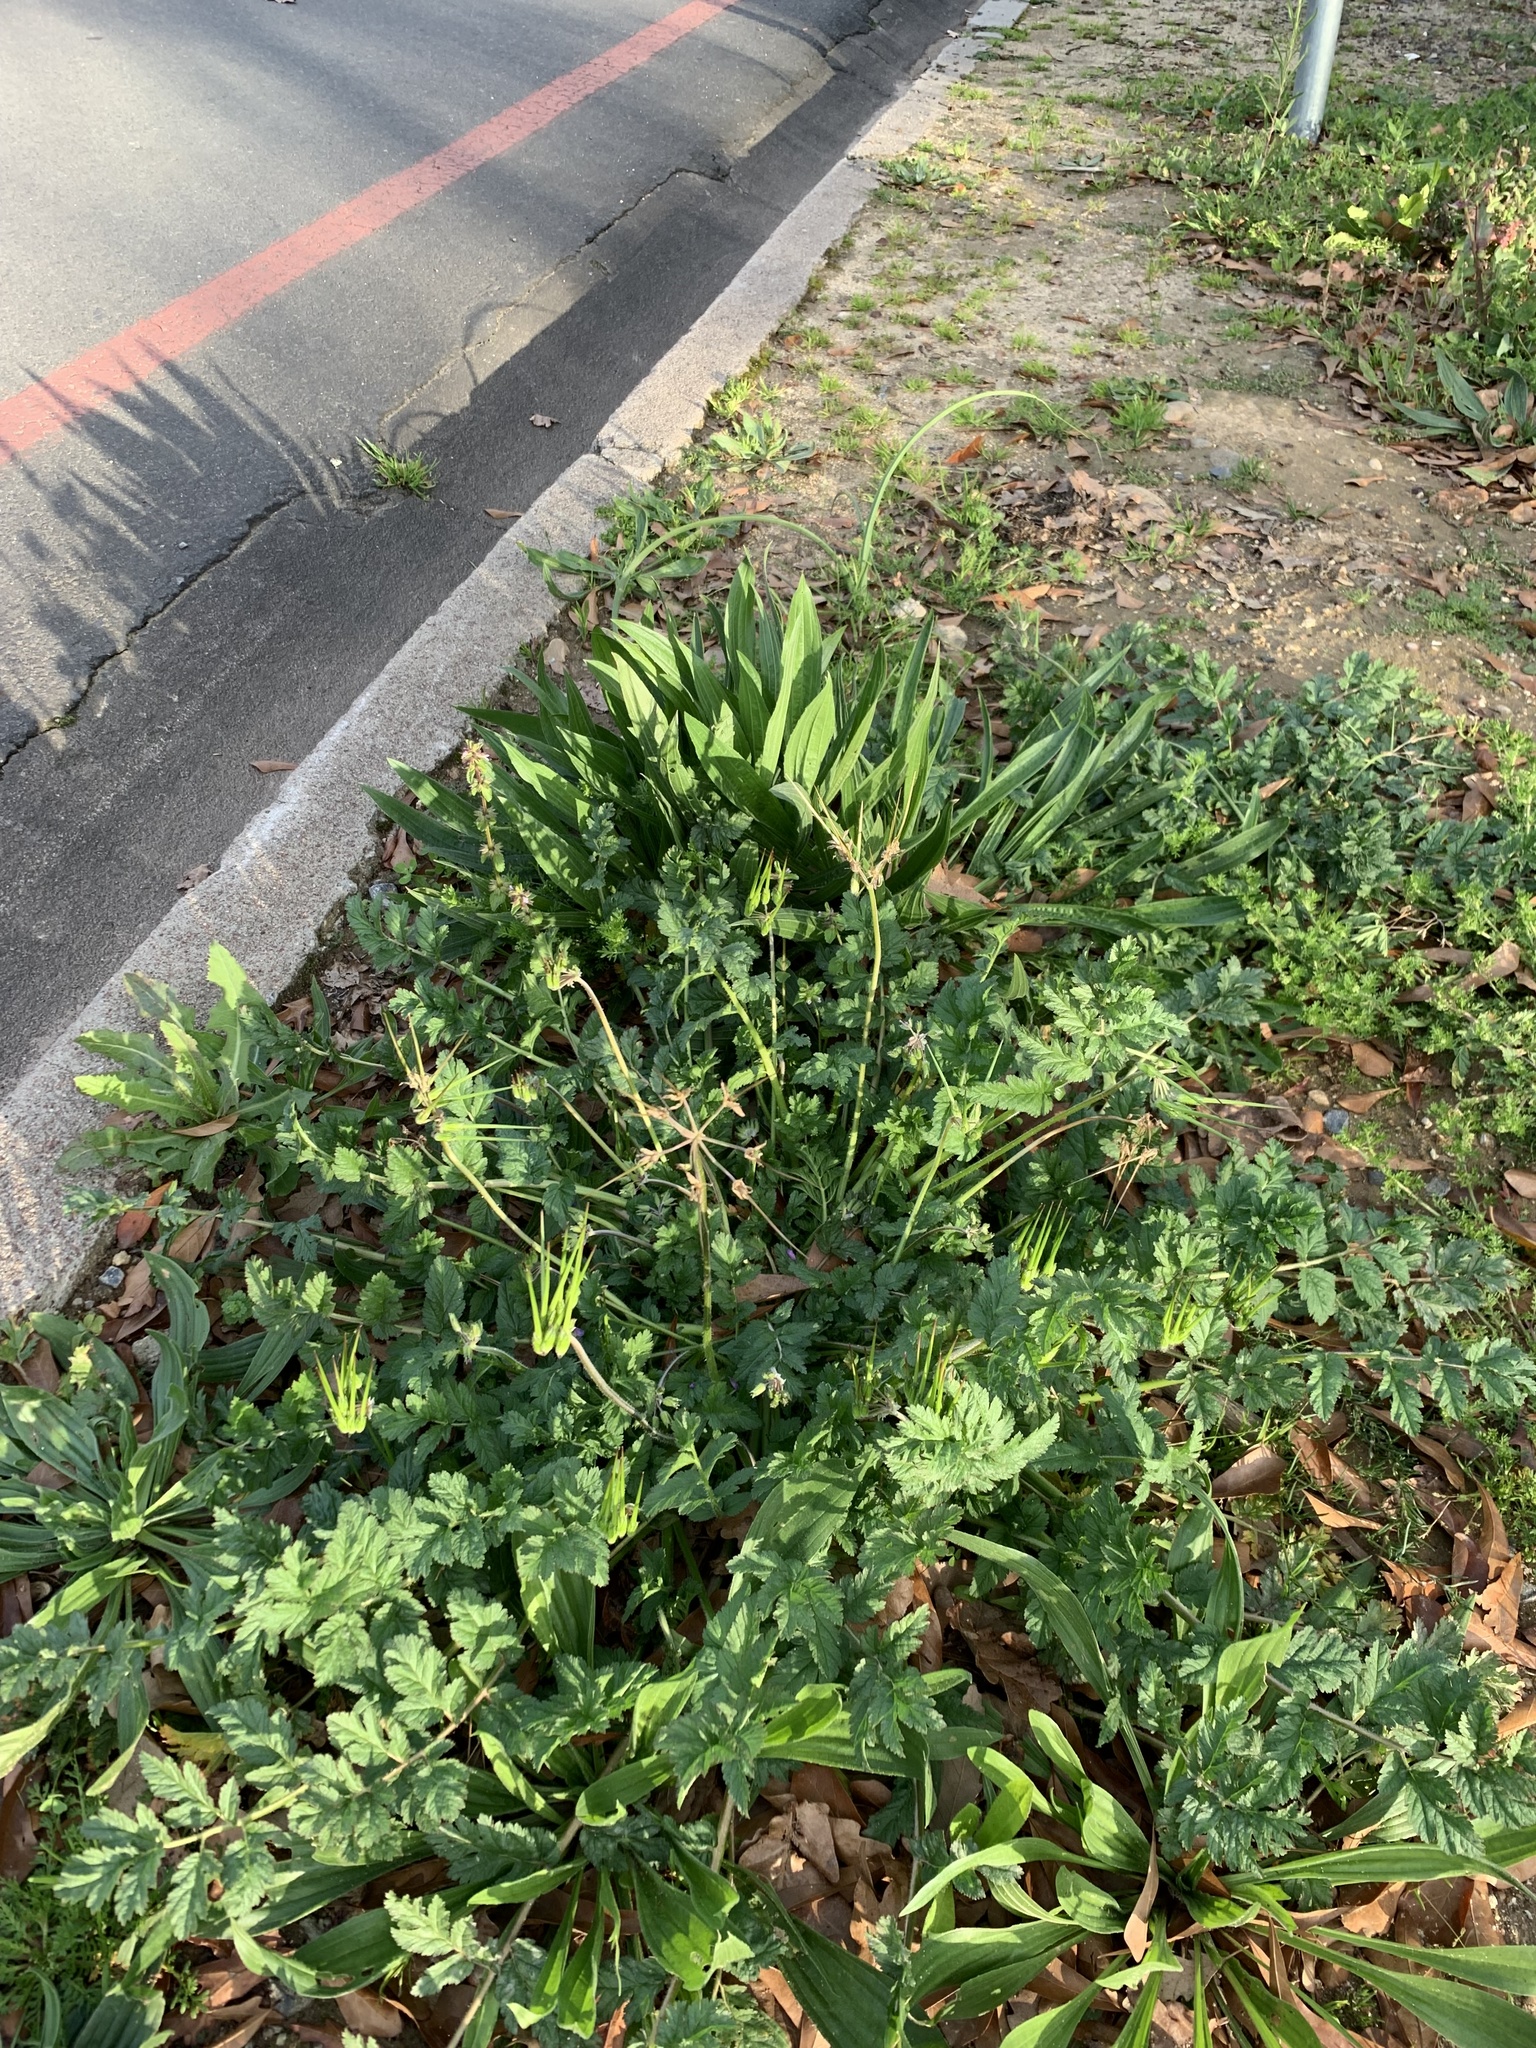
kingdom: Plantae
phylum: Tracheophyta
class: Magnoliopsida
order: Geraniales
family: Geraniaceae
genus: Erodium
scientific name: Erodium moschatum
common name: Musk stork's-bill
